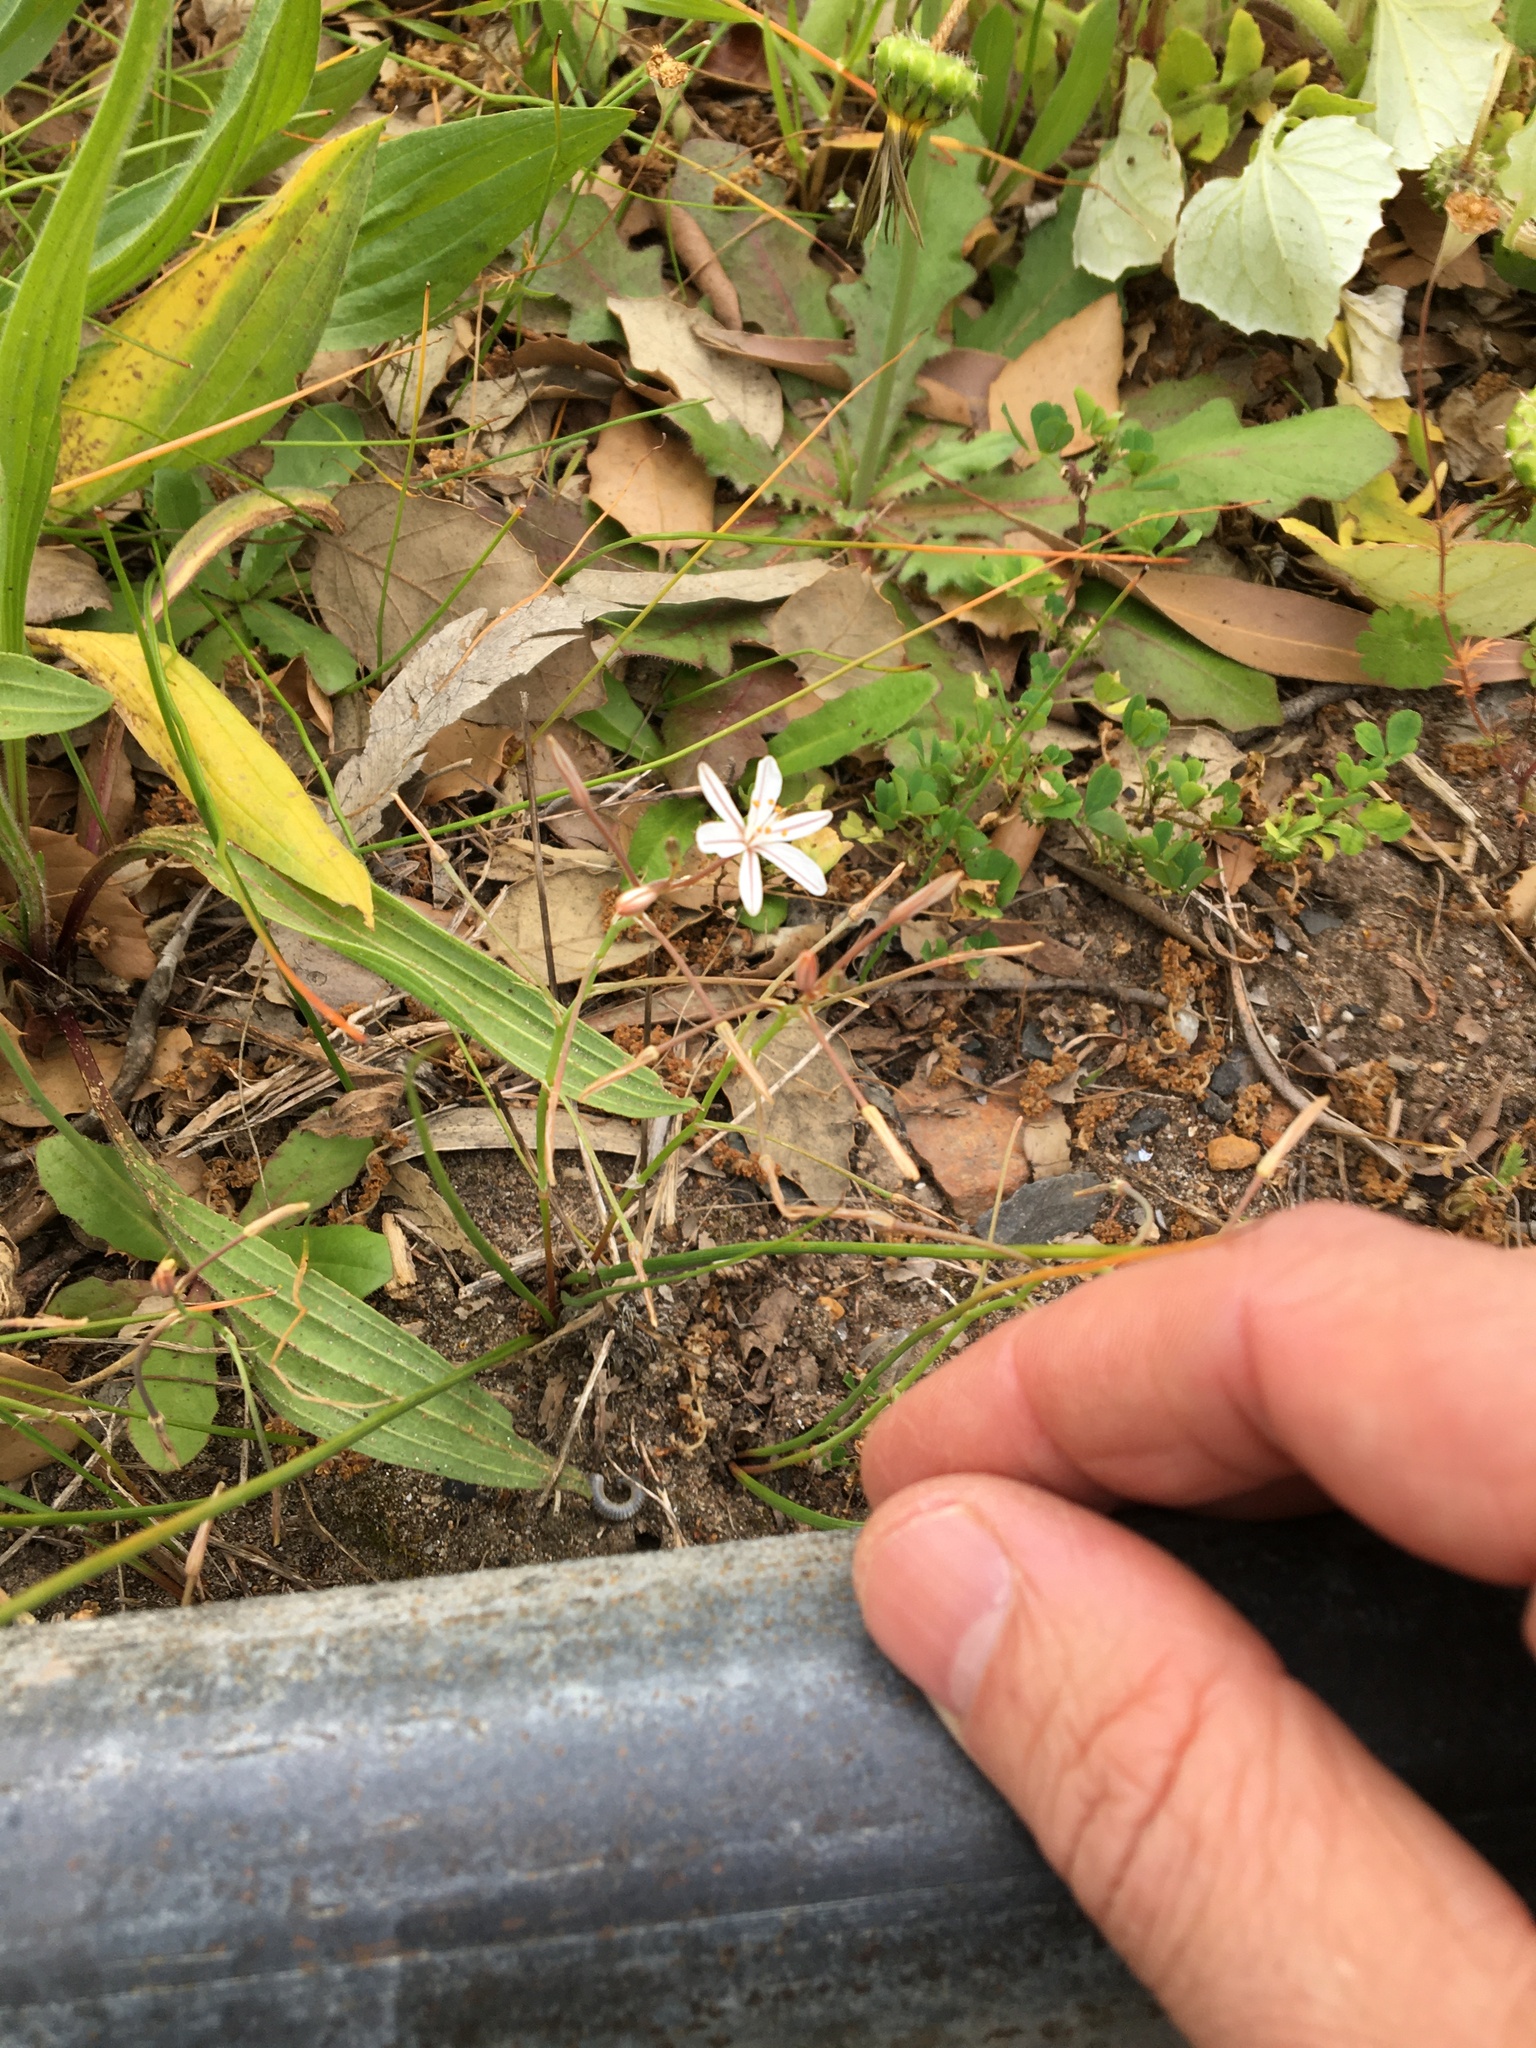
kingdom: Plantae
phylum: Tracheophyta
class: Liliopsida
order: Asparagales
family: Asphodelaceae
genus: Trachyandra
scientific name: Trachyandra chlamydophylla
